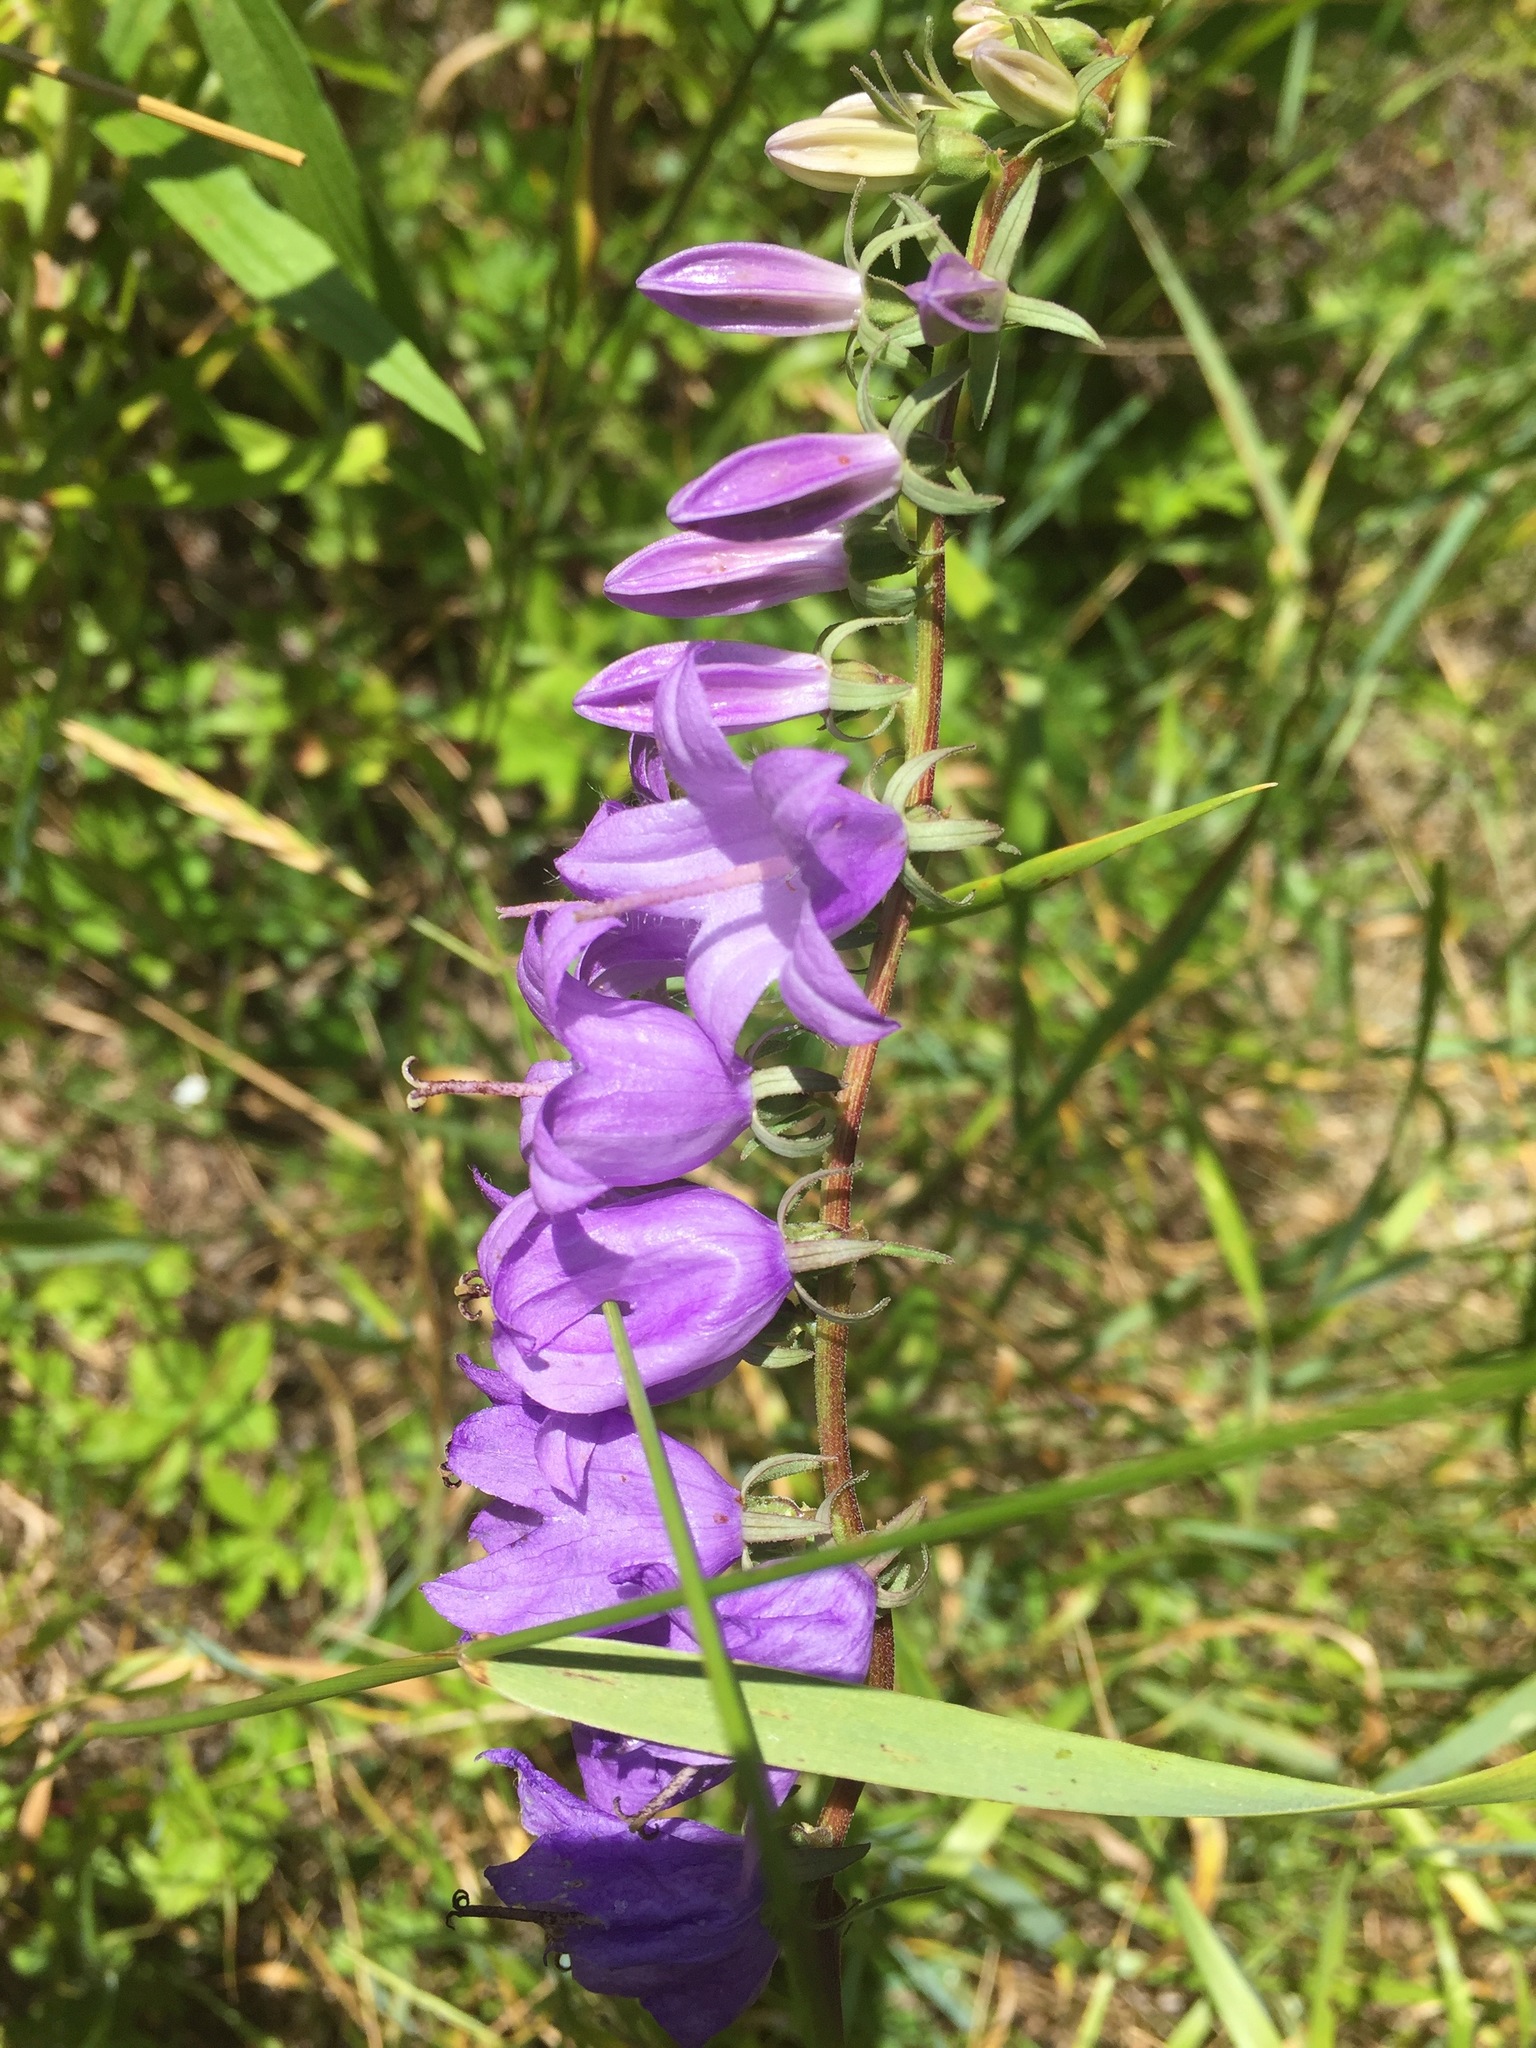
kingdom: Plantae
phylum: Tracheophyta
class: Magnoliopsida
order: Asterales
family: Campanulaceae
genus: Campanula
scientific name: Campanula rapunculoides
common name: Creeping bellflower
